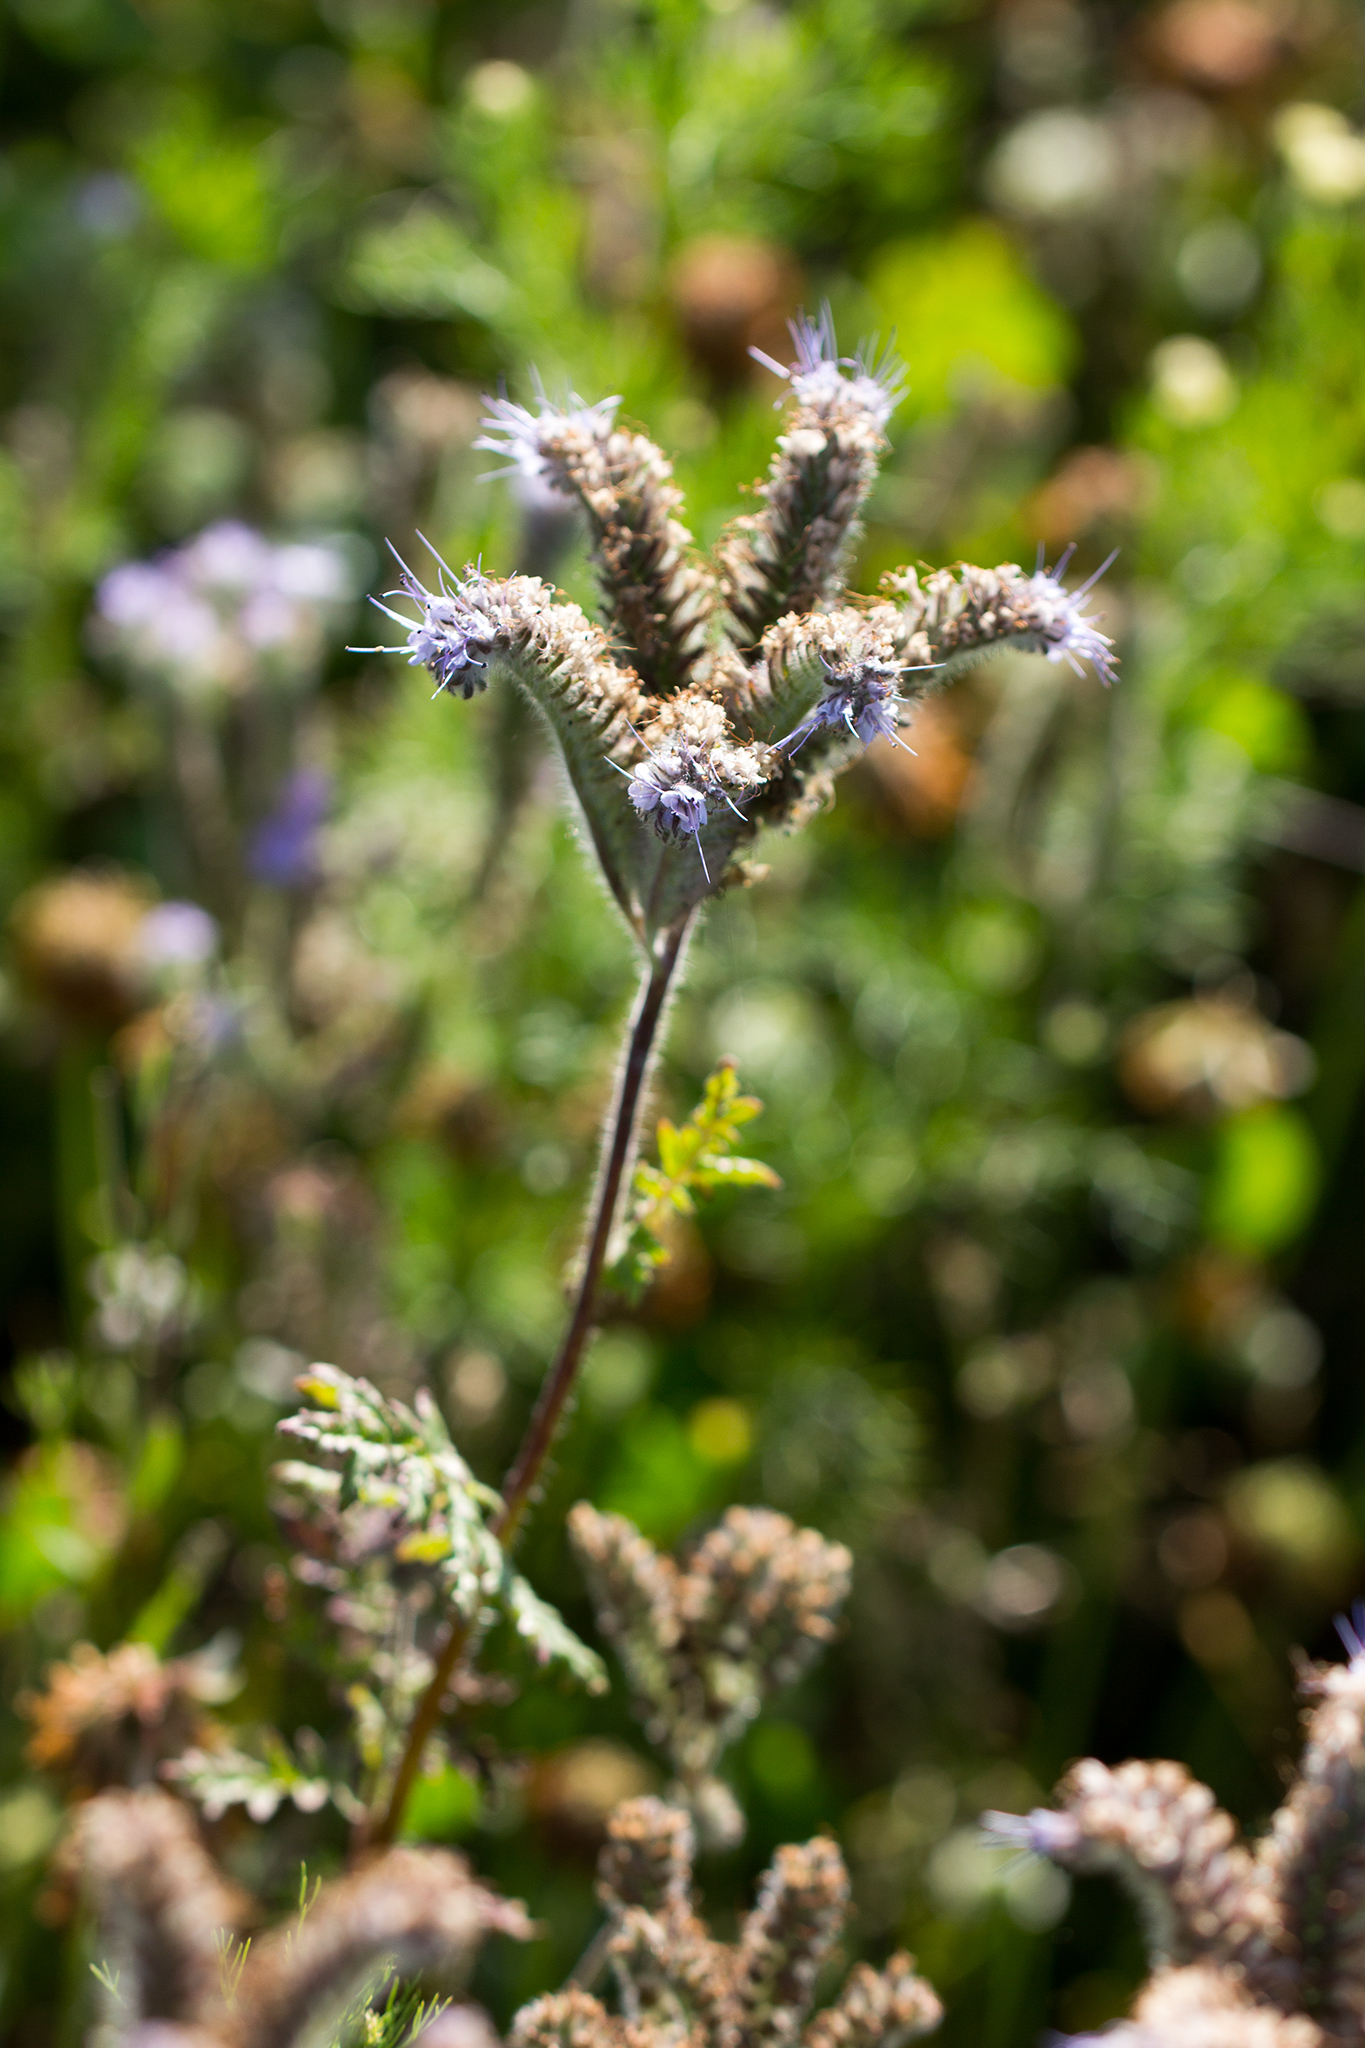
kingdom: Plantae
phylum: Tracheophyta
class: Magnoliopsida
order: Boraginales
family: Hydrophyllaceae
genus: Phacelia
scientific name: Phacelia tanacetifolia
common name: Phacelia
